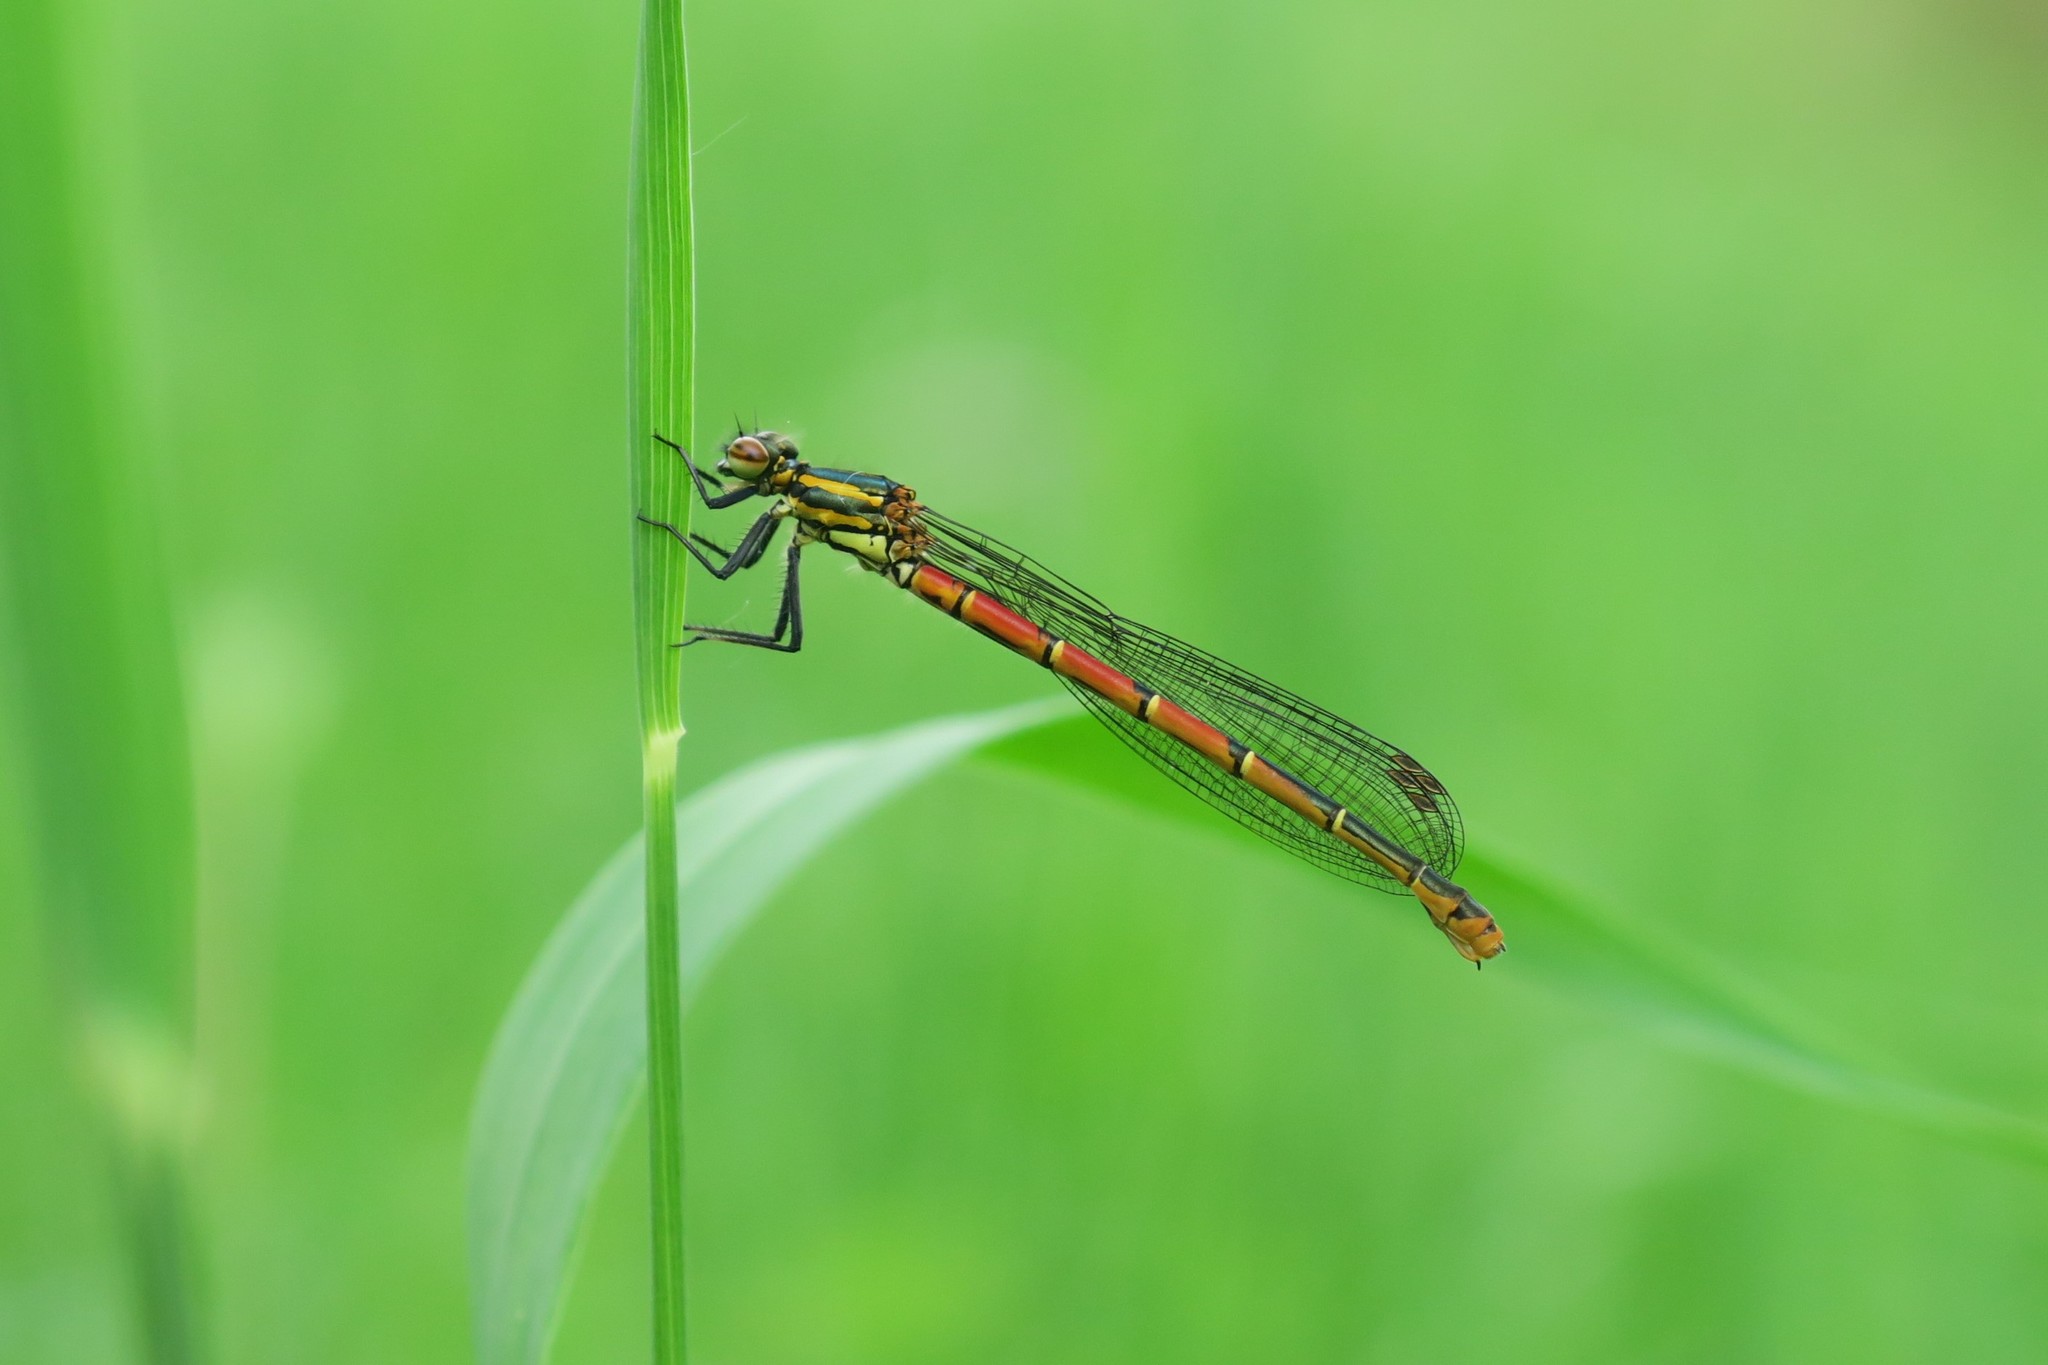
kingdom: Animalia
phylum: Arthropoda
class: Insecta
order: Odonata
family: Coenagrionidae
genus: Pyrrhosoma
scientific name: Pyrrhosoma nymphula
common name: Large red damsel
